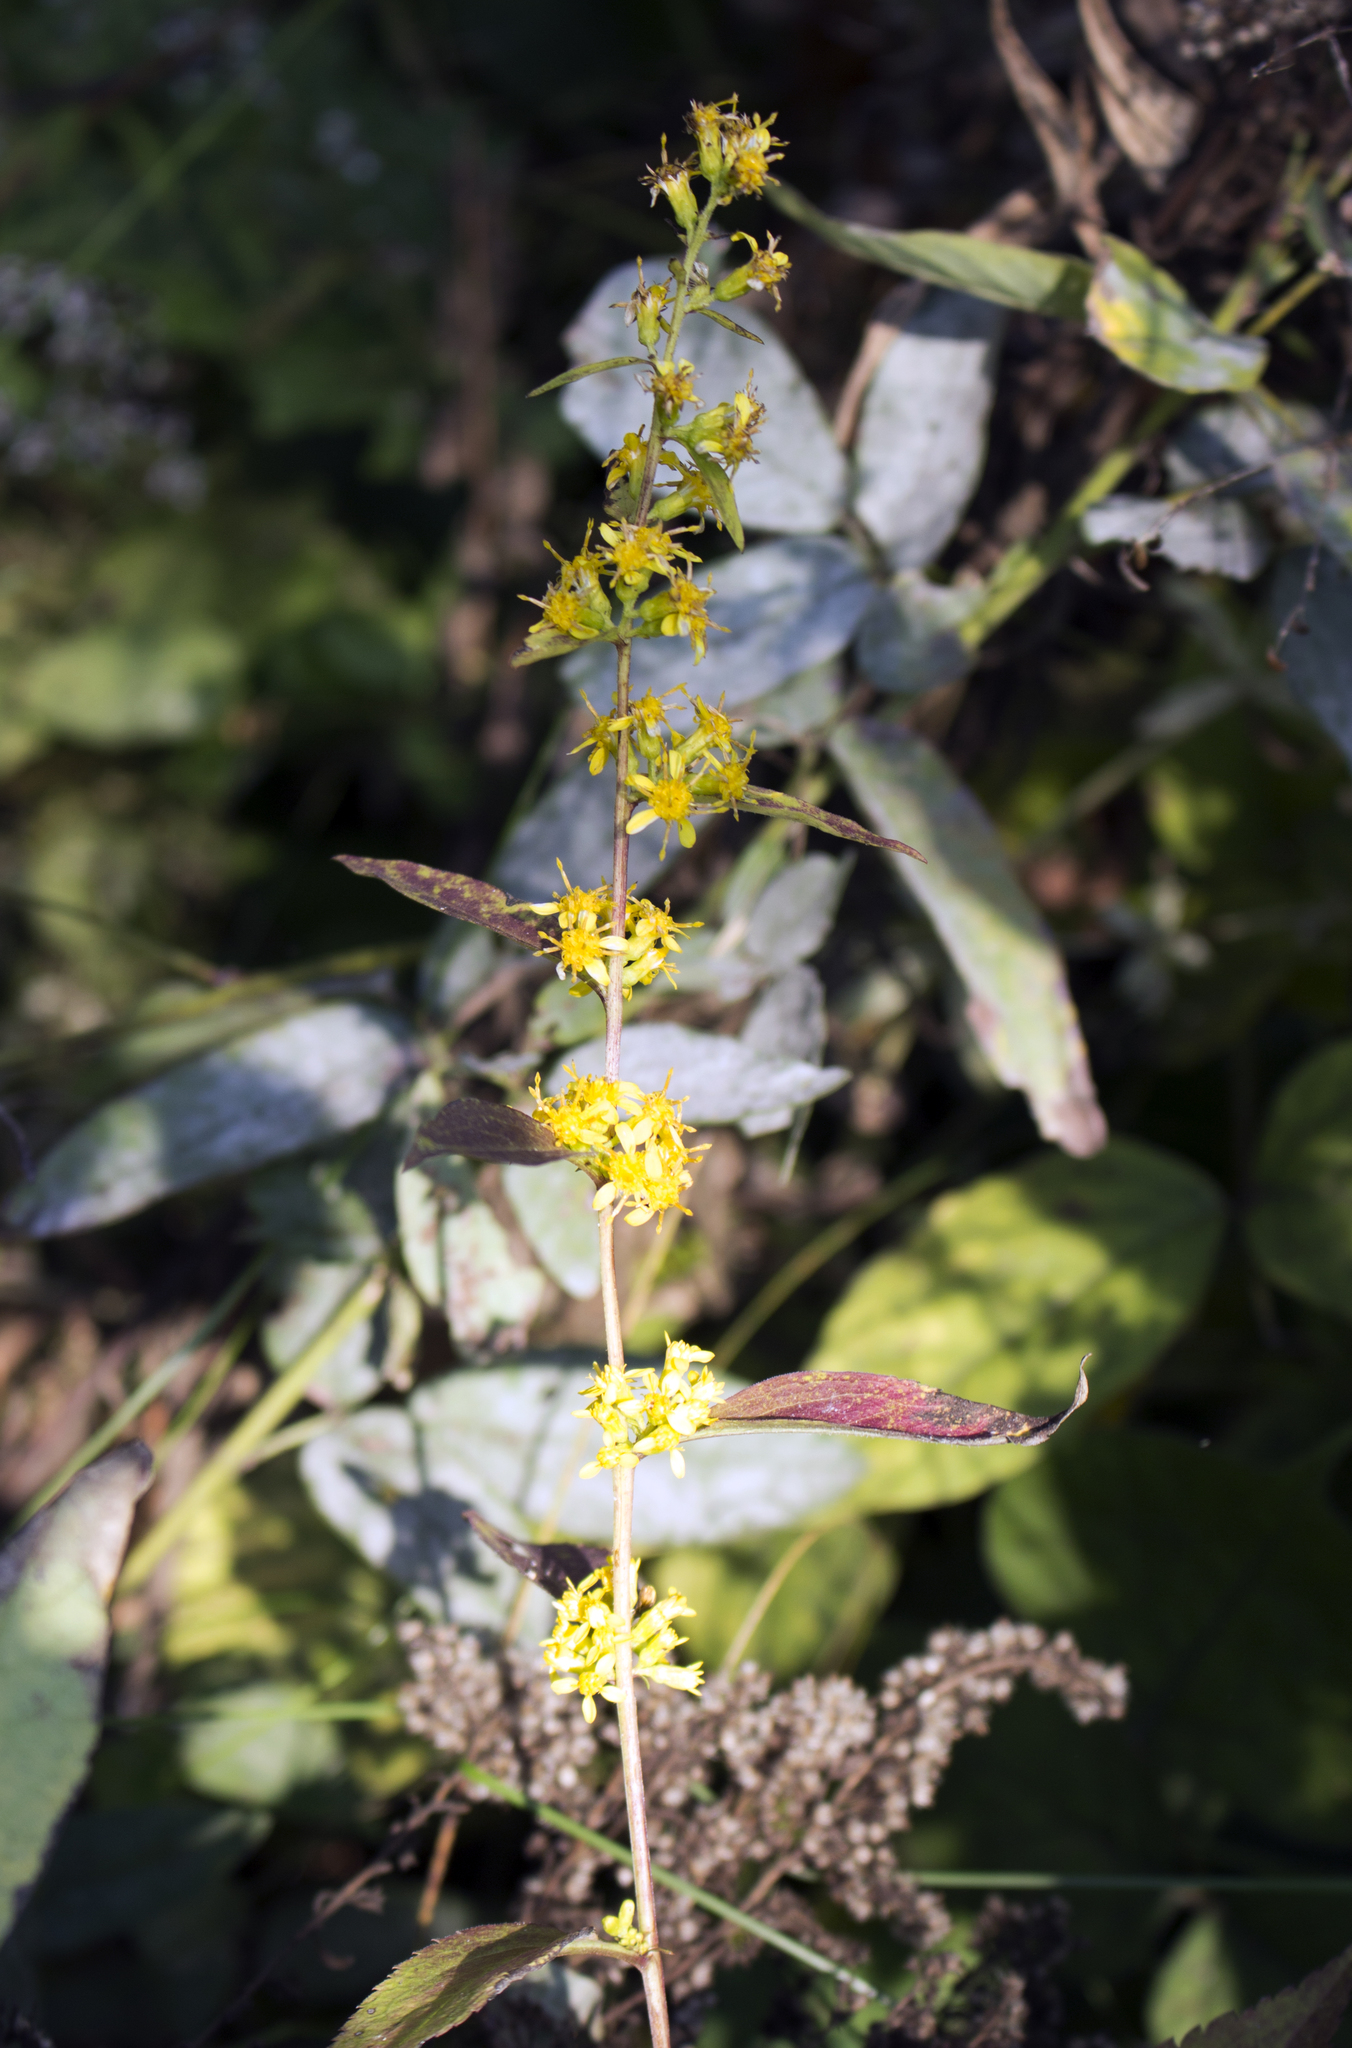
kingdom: Plantae
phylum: Tracheophyta
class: Magnoliopsida
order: Asterales
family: Asteraceae
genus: Solidago
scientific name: Solidago flexicaulis
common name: Zig-zag goldenrod
